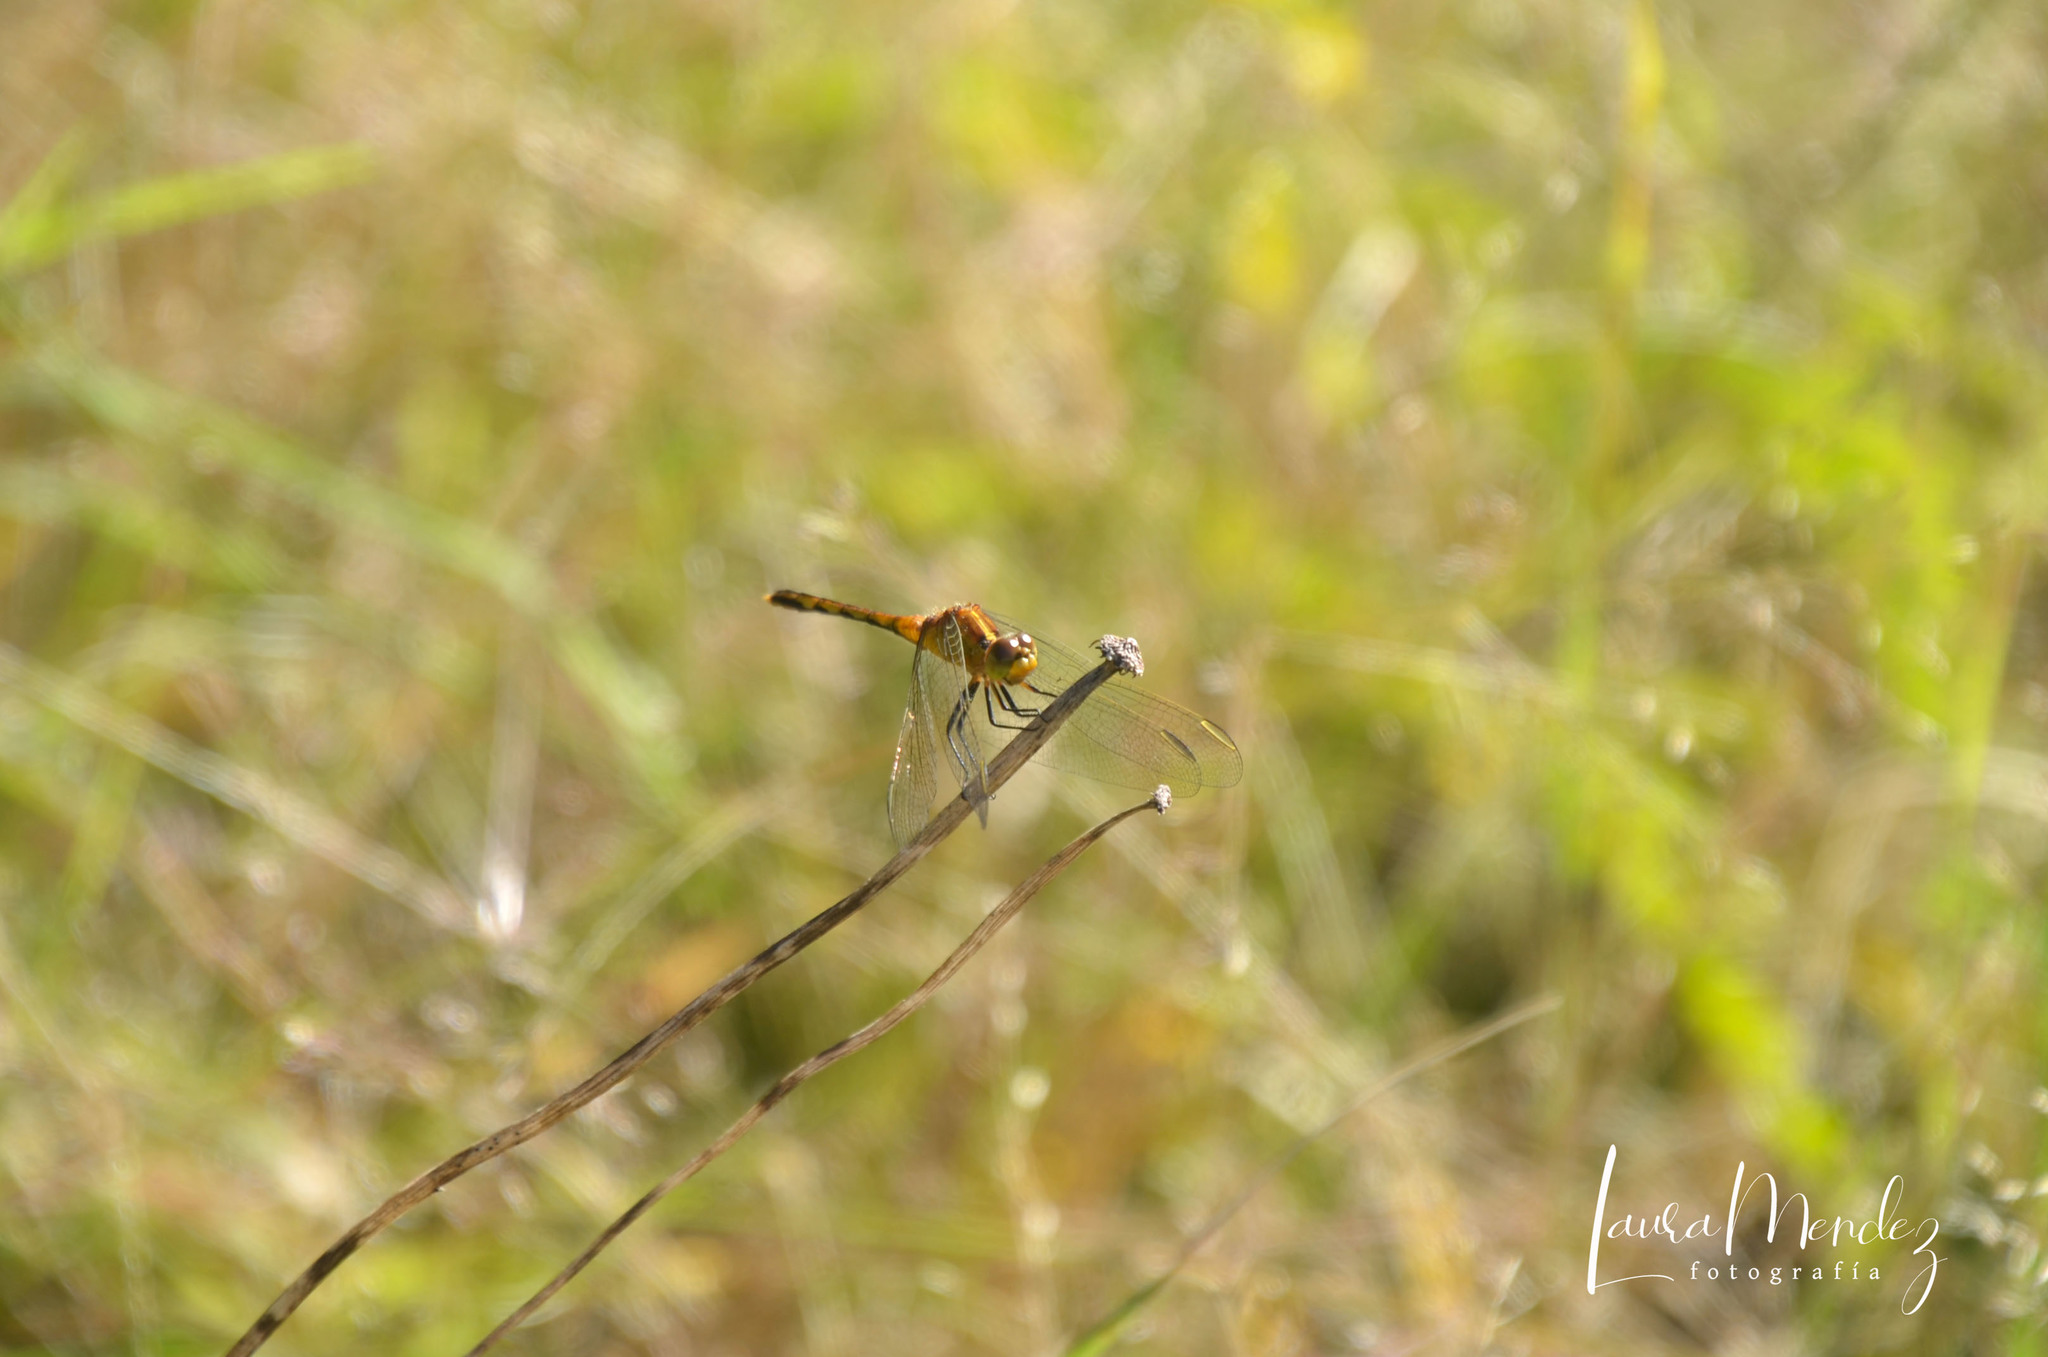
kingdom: Animalia
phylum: Arthropoda
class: Insecta
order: Odonata
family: Libellulidae
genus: Erythrodiplax
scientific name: Erythrodiplax nigricans
